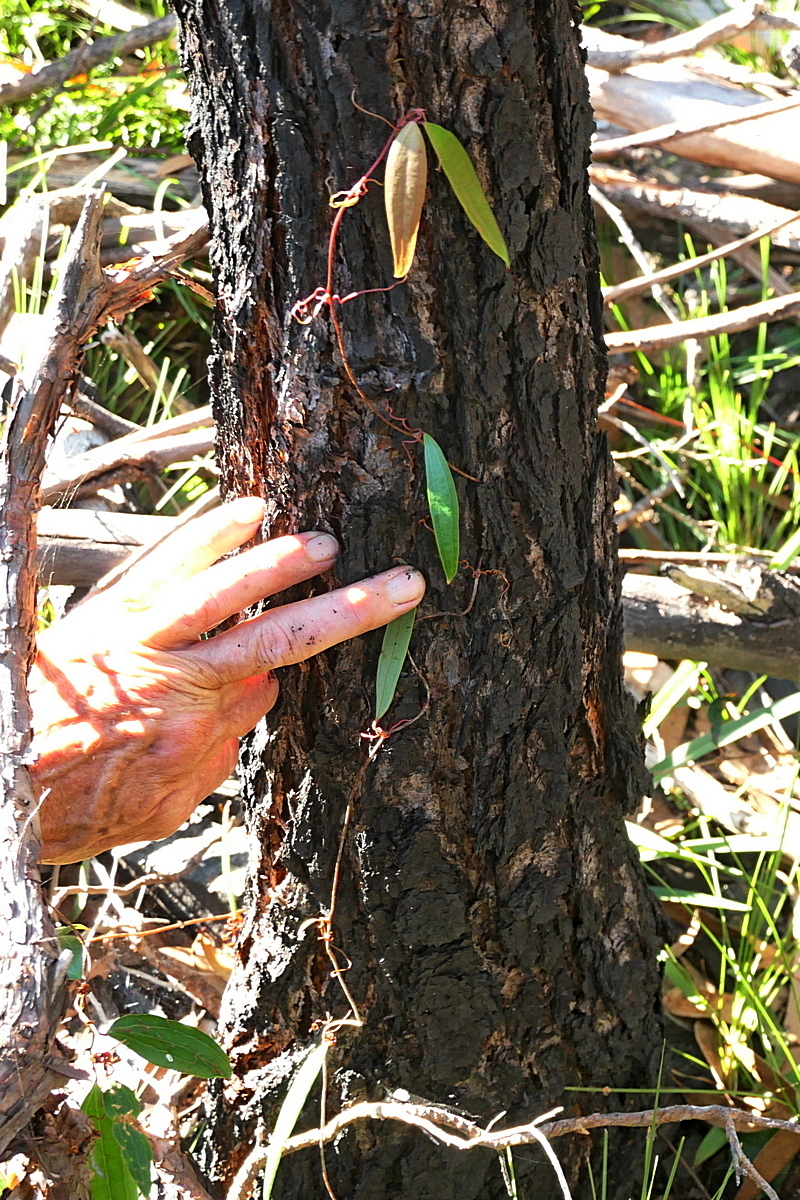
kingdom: Plantae
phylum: Tracheophyta
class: Liliopsida
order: Liliales
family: Smilacaceae
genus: Smilax
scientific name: Smilax glyciphylla
